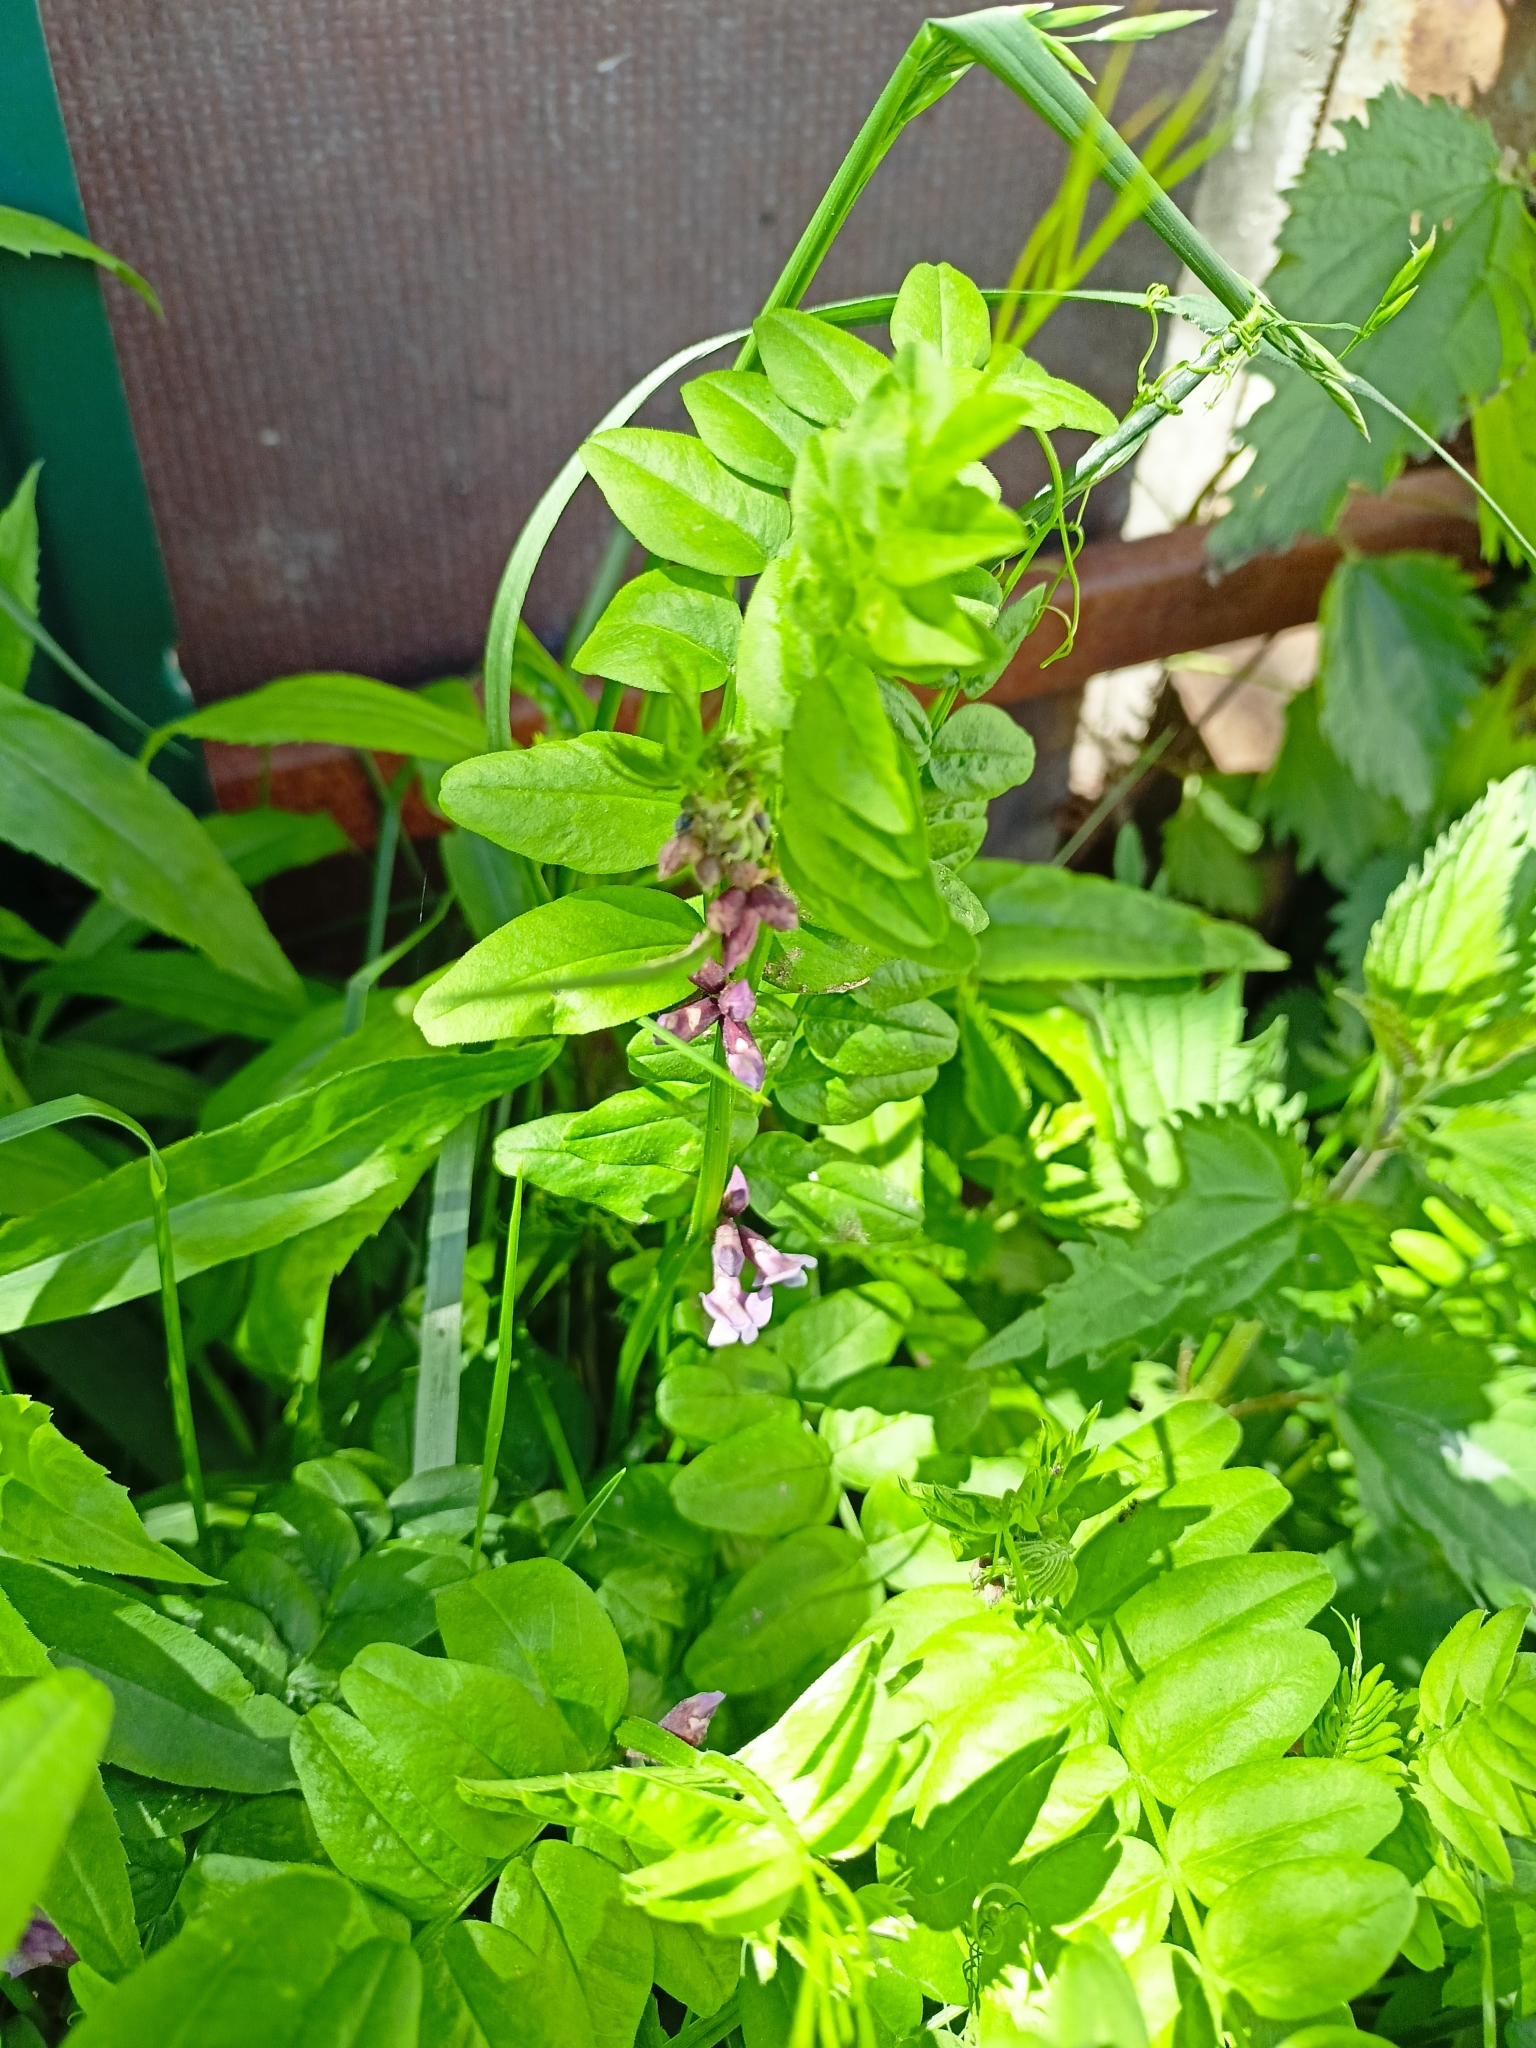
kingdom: Plantae
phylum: Tracheophyta
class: Magnoliopsida
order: Fabales
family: Fabaceae
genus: Vicia
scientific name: Vicia sepium
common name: Bush vetch
